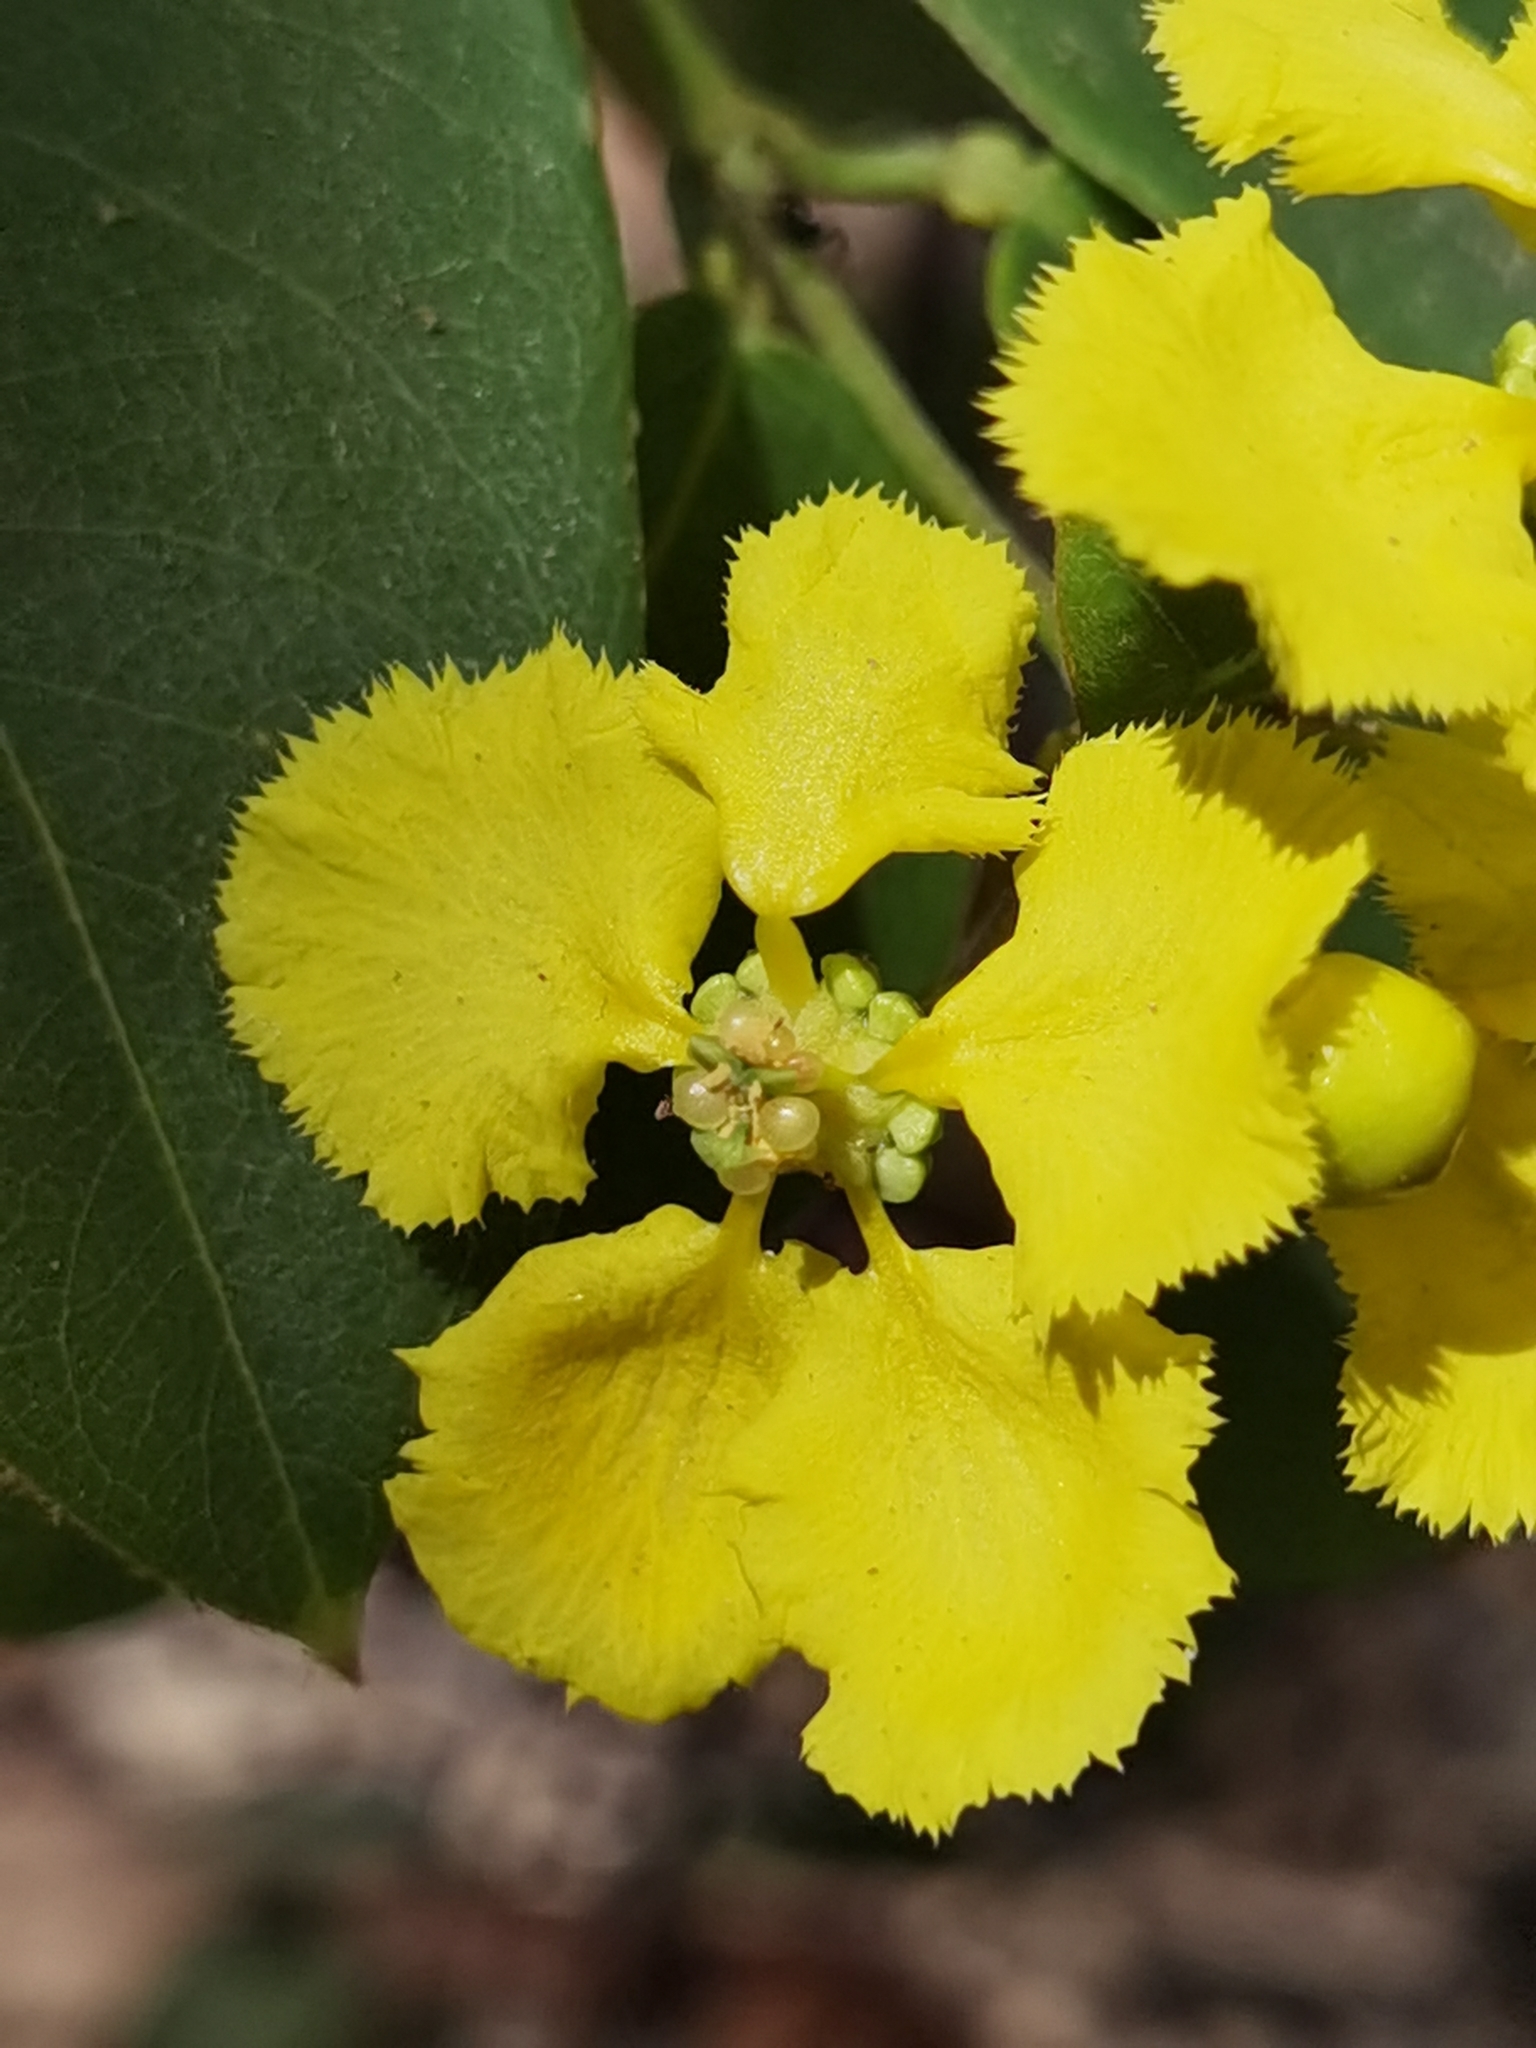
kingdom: Plantae
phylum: Tracheophyta
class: Magnoliopsida
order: Malpighiales
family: Malpighiaceae
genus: Stigmaphyllon
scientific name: Stigmaphyllon ellipticum
